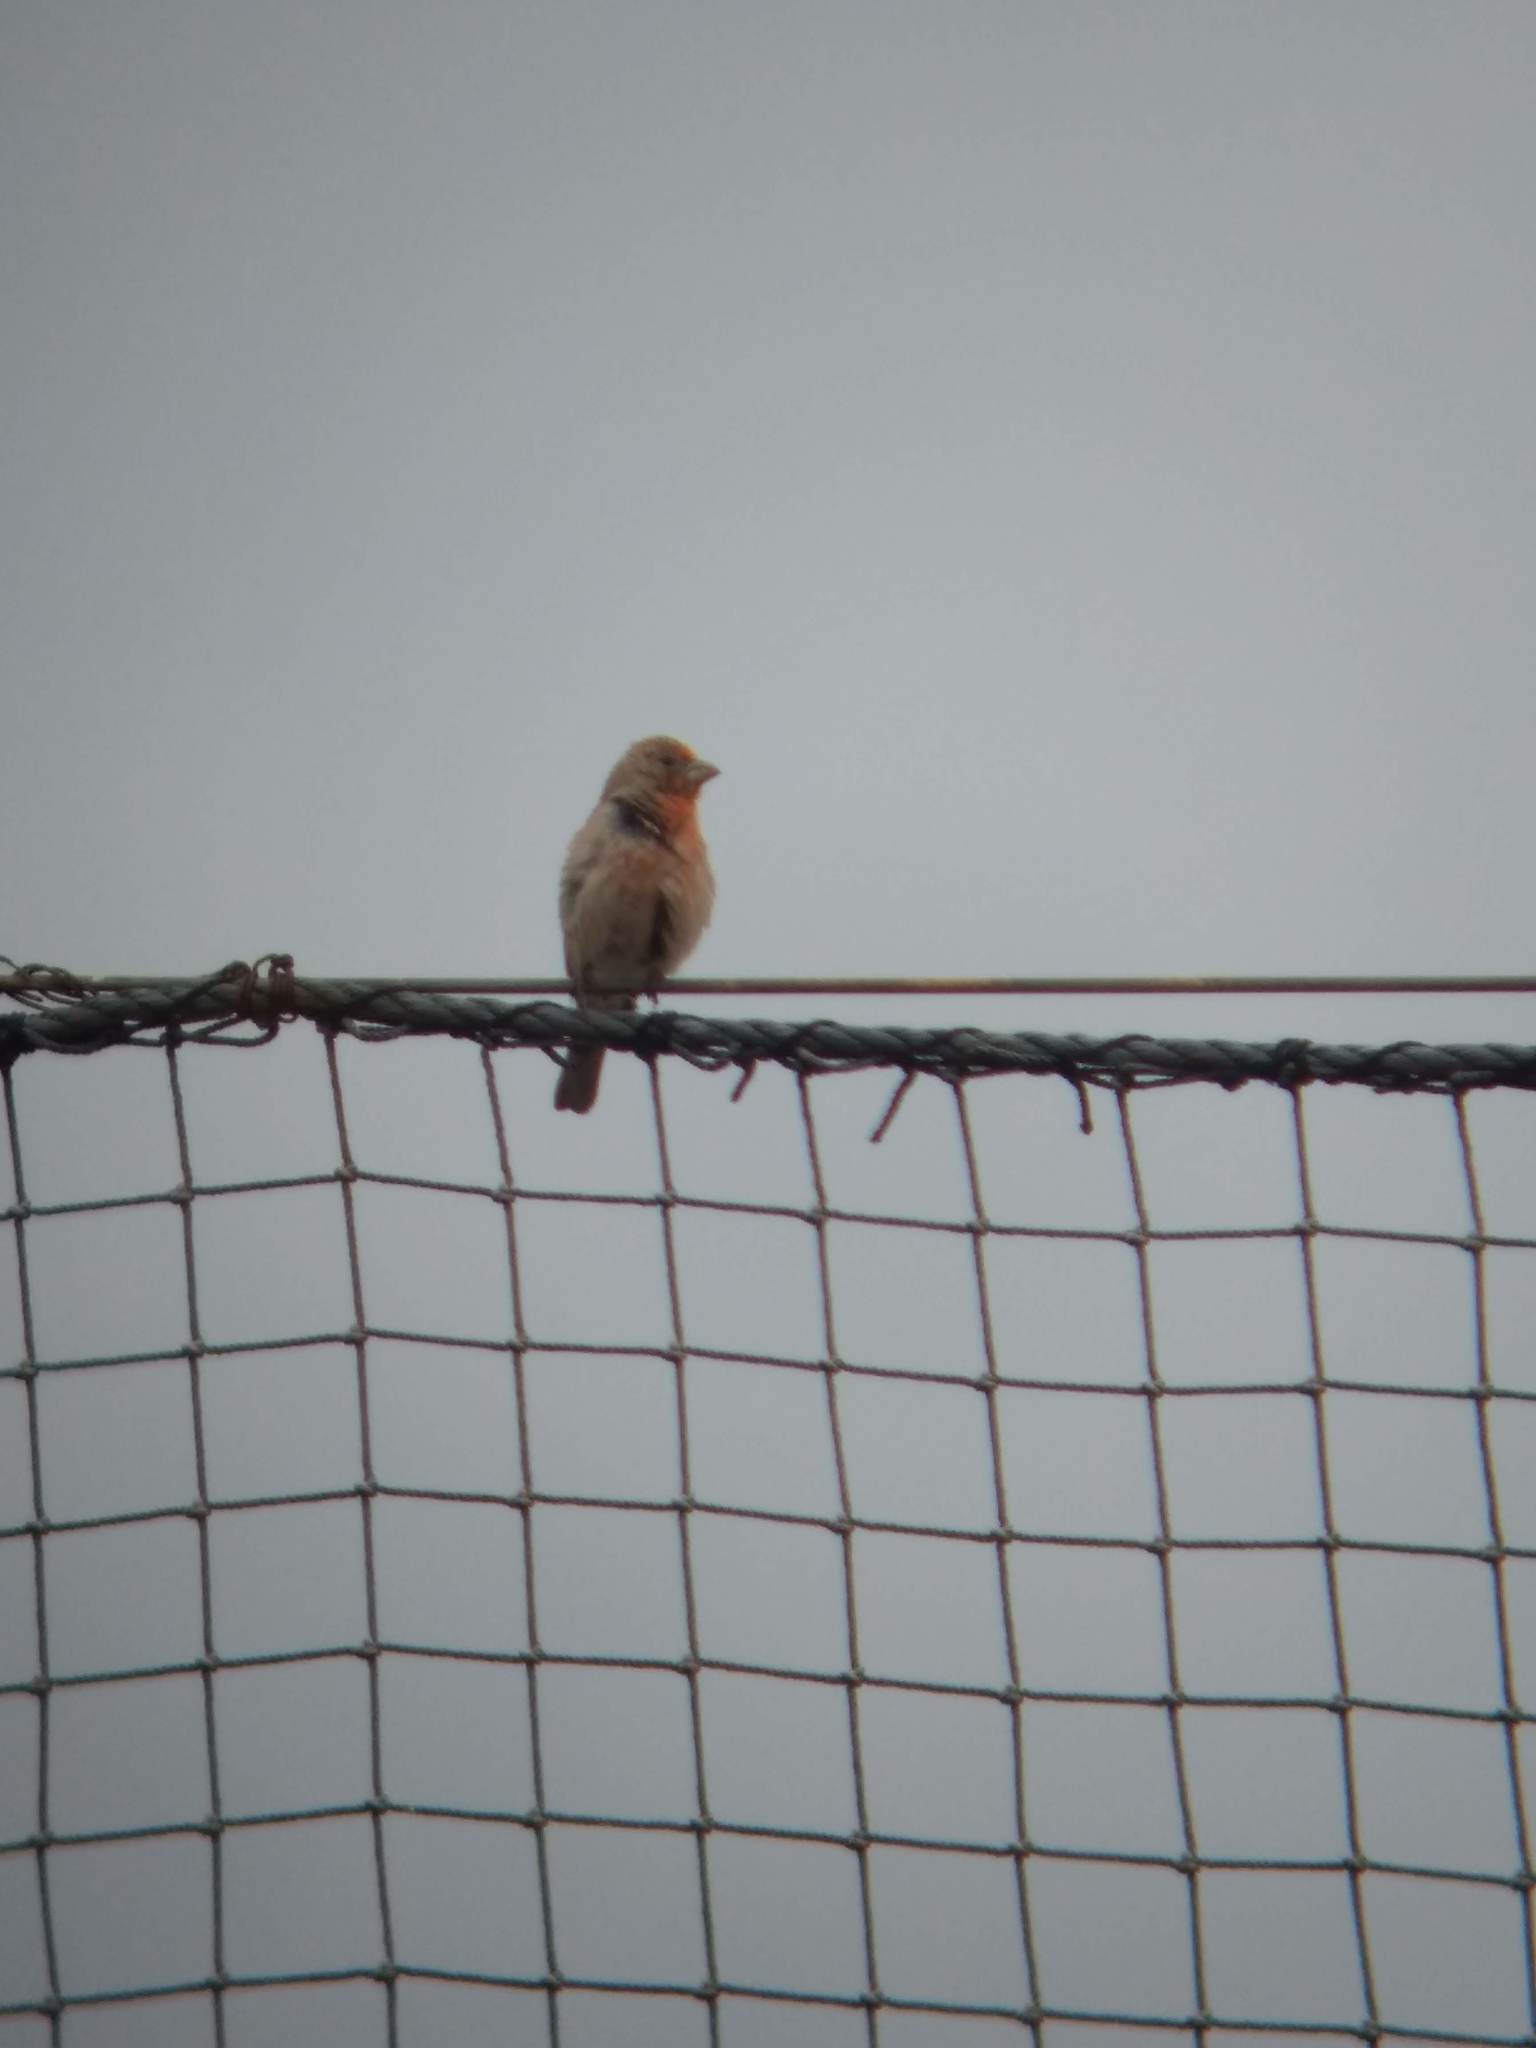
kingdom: Animalia
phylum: Chordata
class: Aves
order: Passeriformes
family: Fringillidae
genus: Haemorhous
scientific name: Haemorhous mexicanus
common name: House finch
